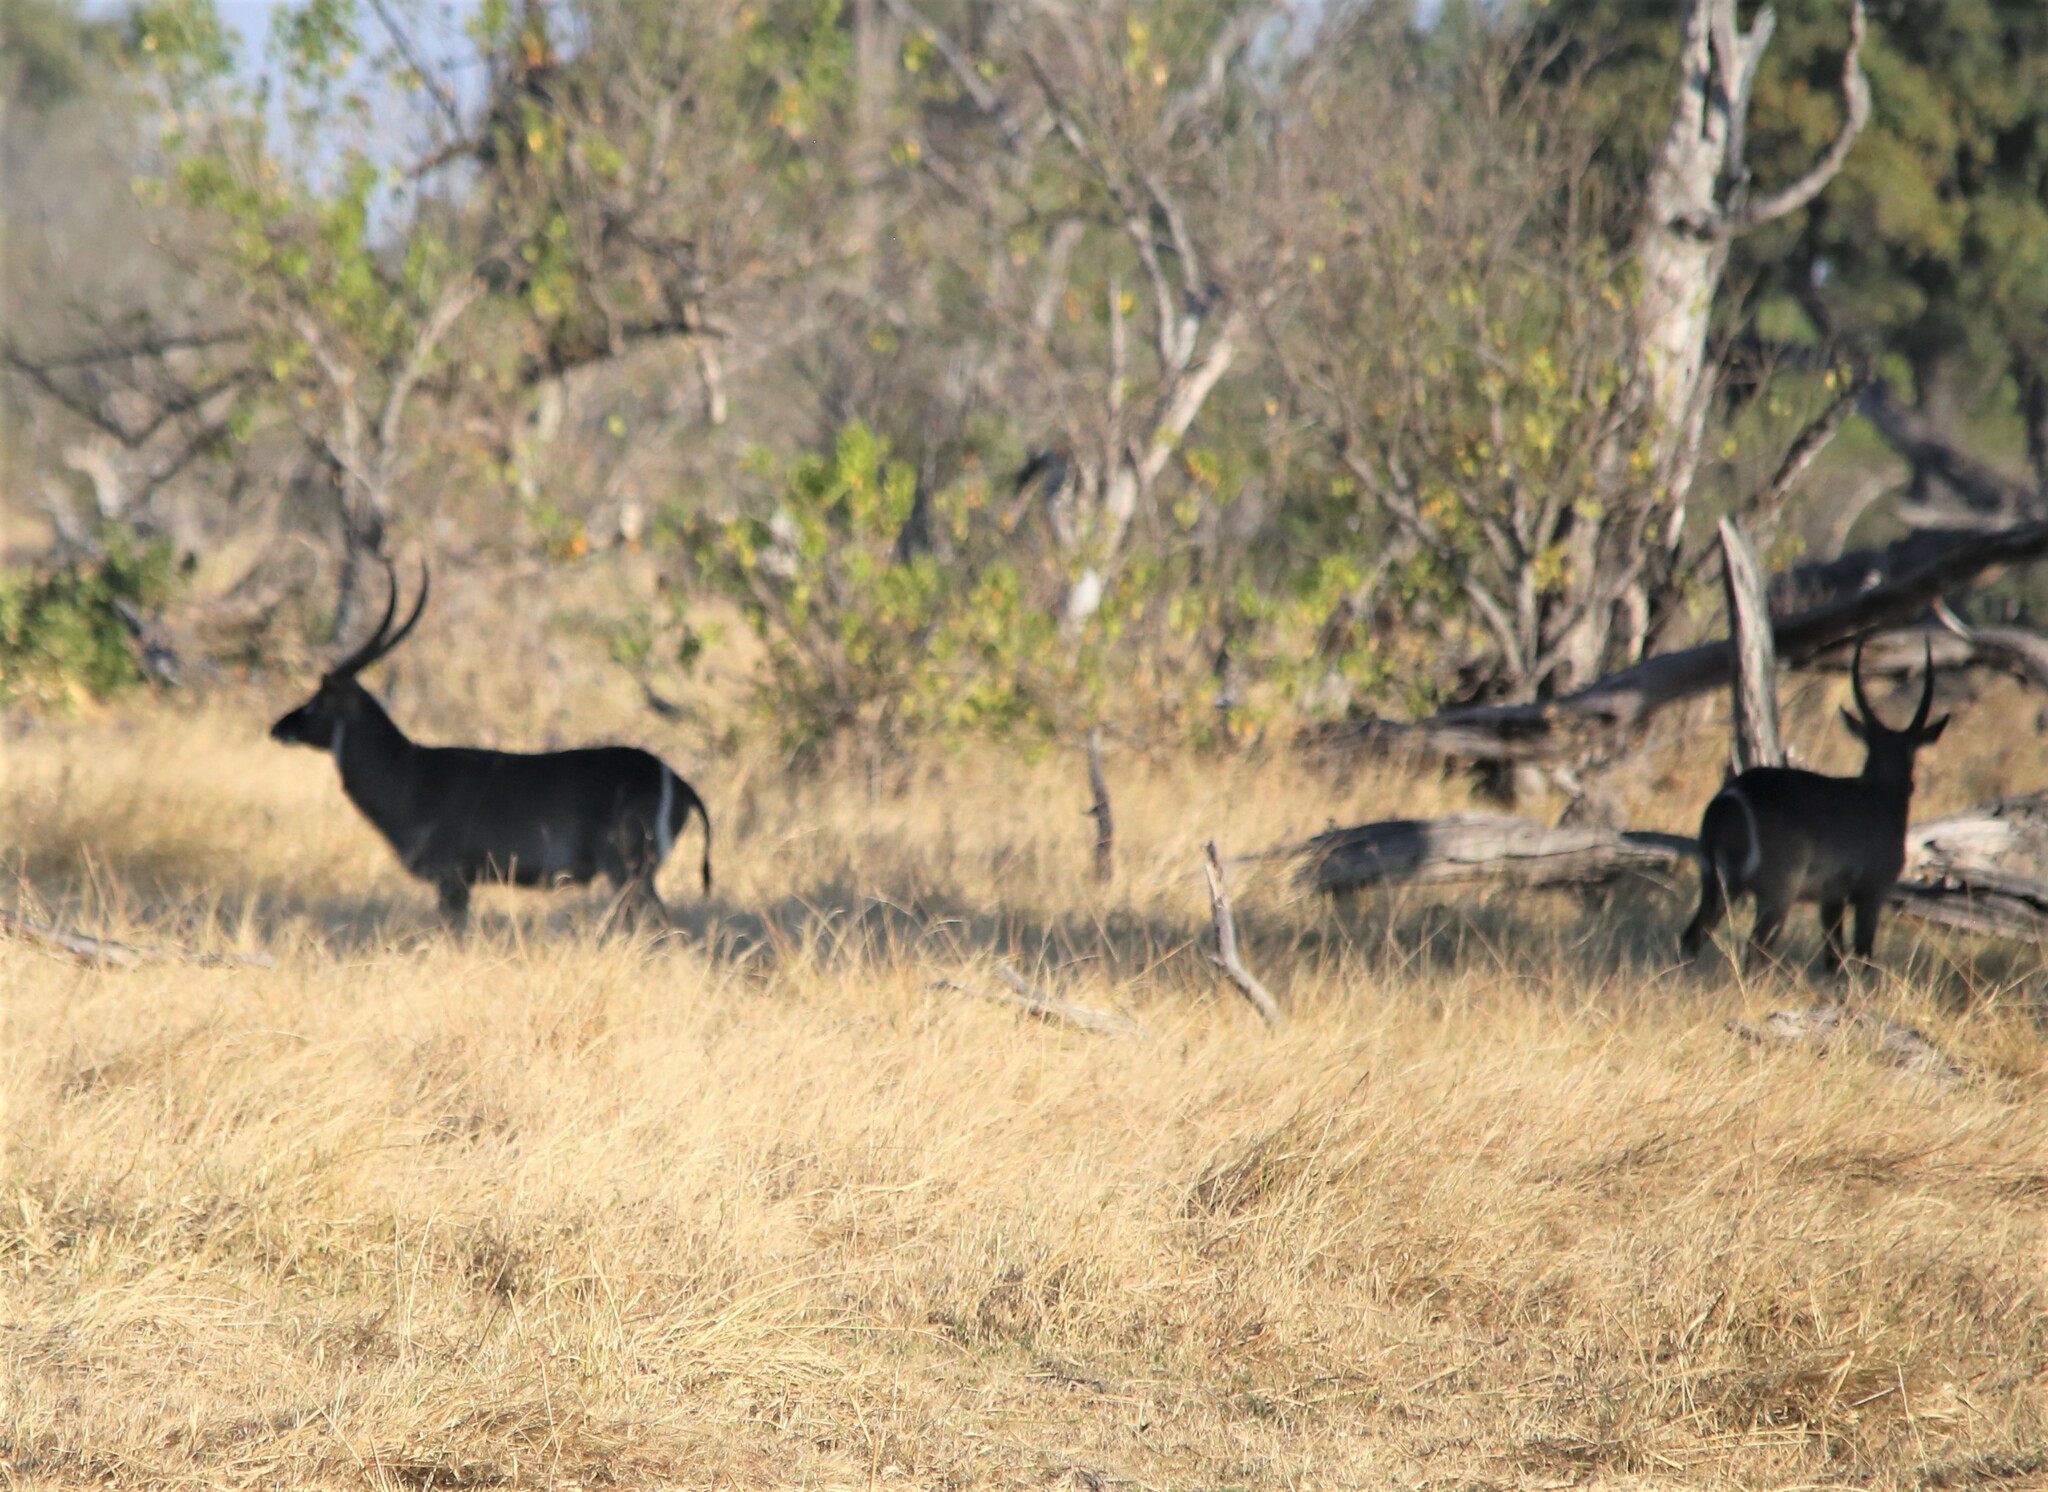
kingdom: Animalia
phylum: Chordata
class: Mammalia
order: Artiodactyla
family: Bovidae
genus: Kobus
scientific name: Kobus ellipsiprymnus
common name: Waterbuck
